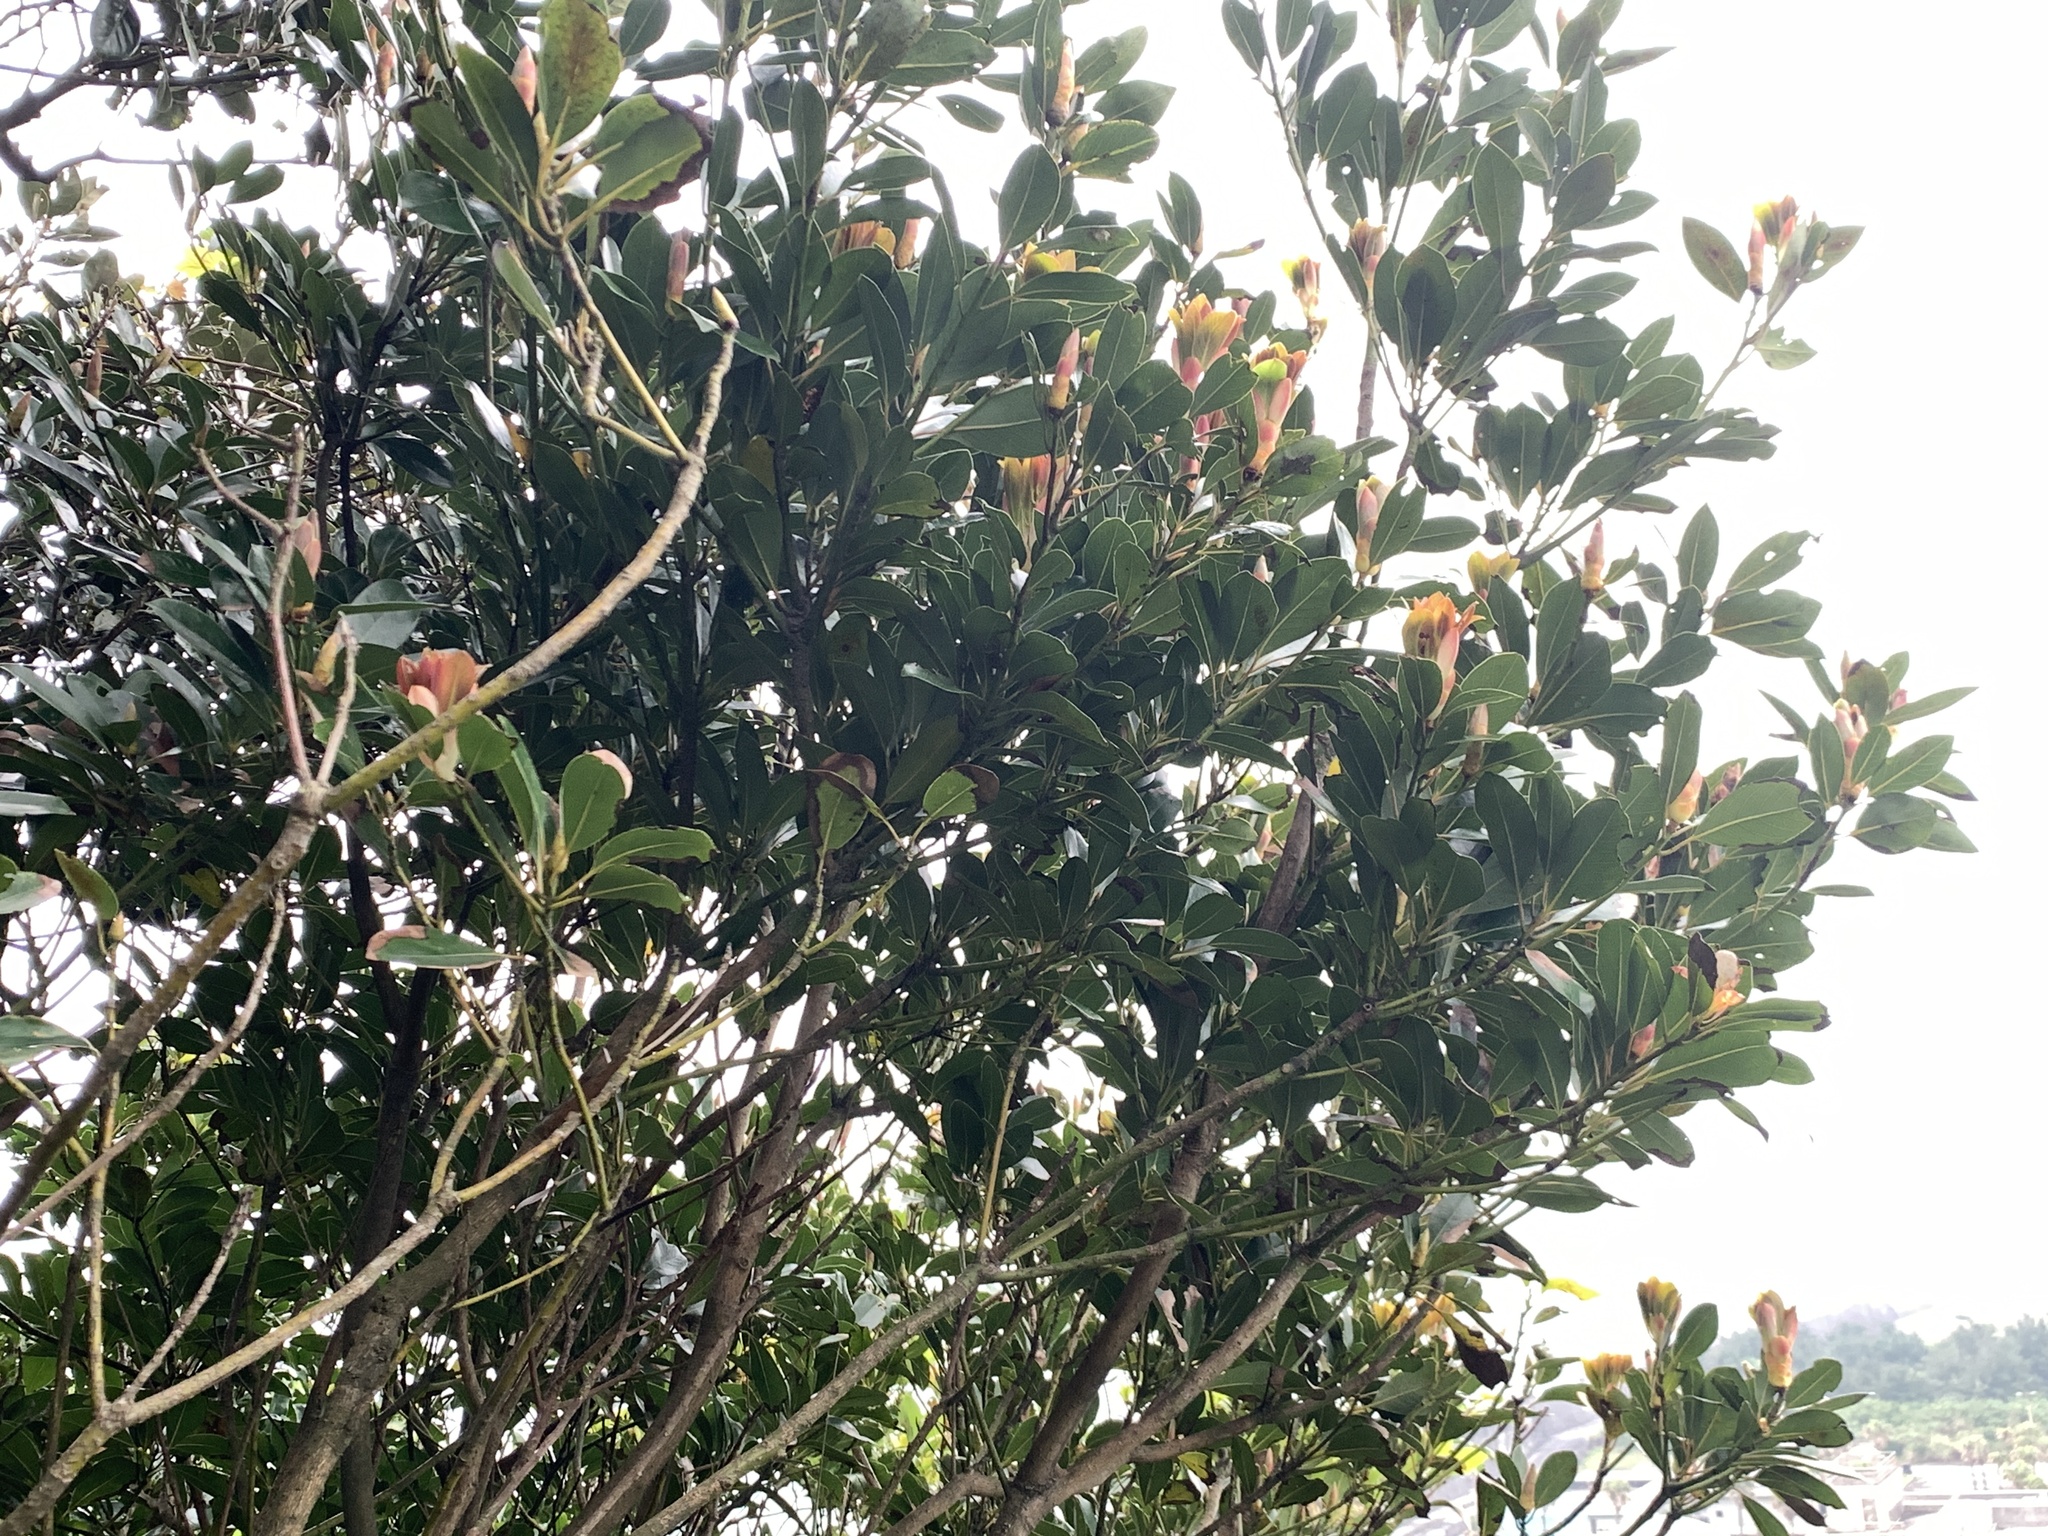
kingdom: Plantae
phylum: Tracheophyta
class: Magnoliopsida
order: Laurales
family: Lauraceae
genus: Machilus
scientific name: Machilus thunbergii
